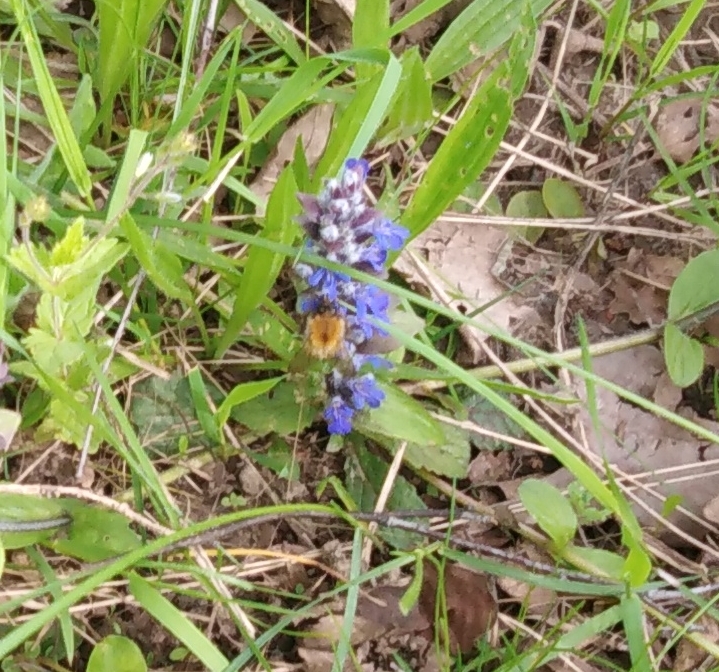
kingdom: Animalia
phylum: Arthropoda
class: Insecta
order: Hymenoptera
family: Apidae
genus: Bombus
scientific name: Bombus pascuorum
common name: Common carder bee
